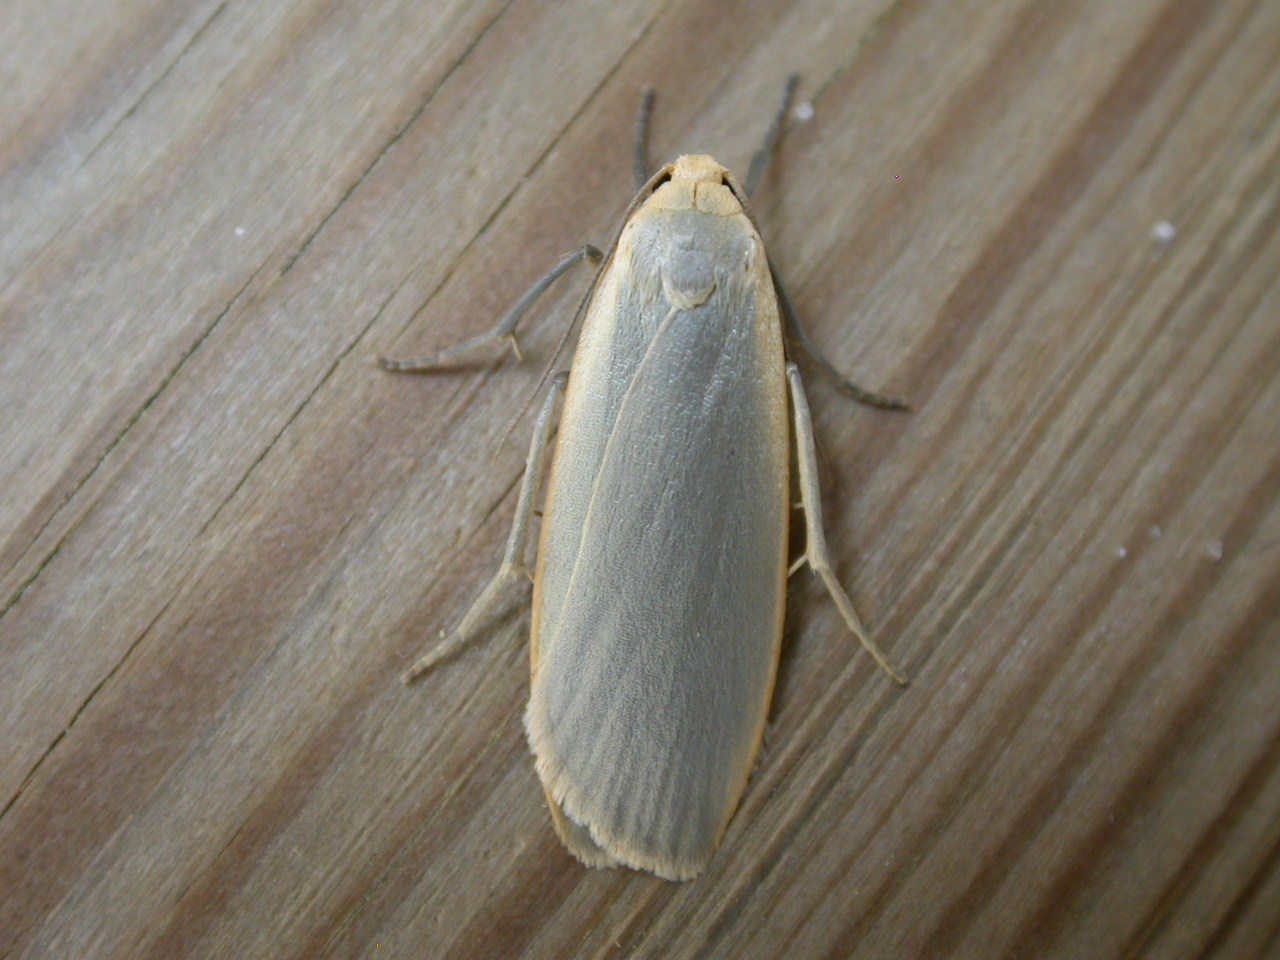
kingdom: Animalia
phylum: Arthropoda
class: Insecta
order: Lepidoptera
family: Erebidae
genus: Collita
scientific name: Collita griseola
